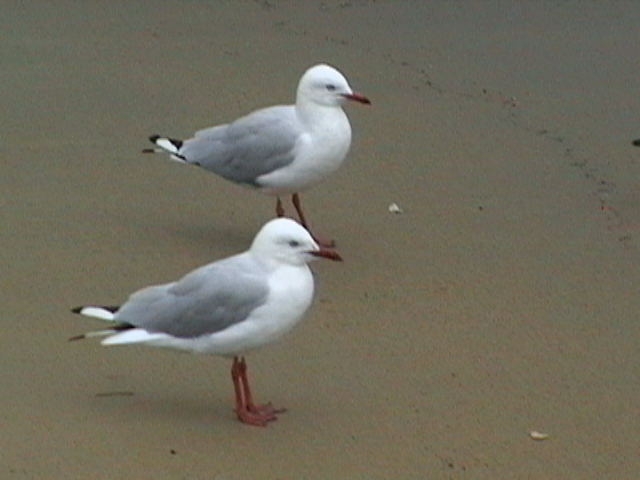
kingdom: Animalia
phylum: Chordata
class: Aves
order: Charadriiformes
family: Laridae
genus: Chroicocephalus
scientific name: Chroicocephalus novaehollandiae
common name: Silver gull
